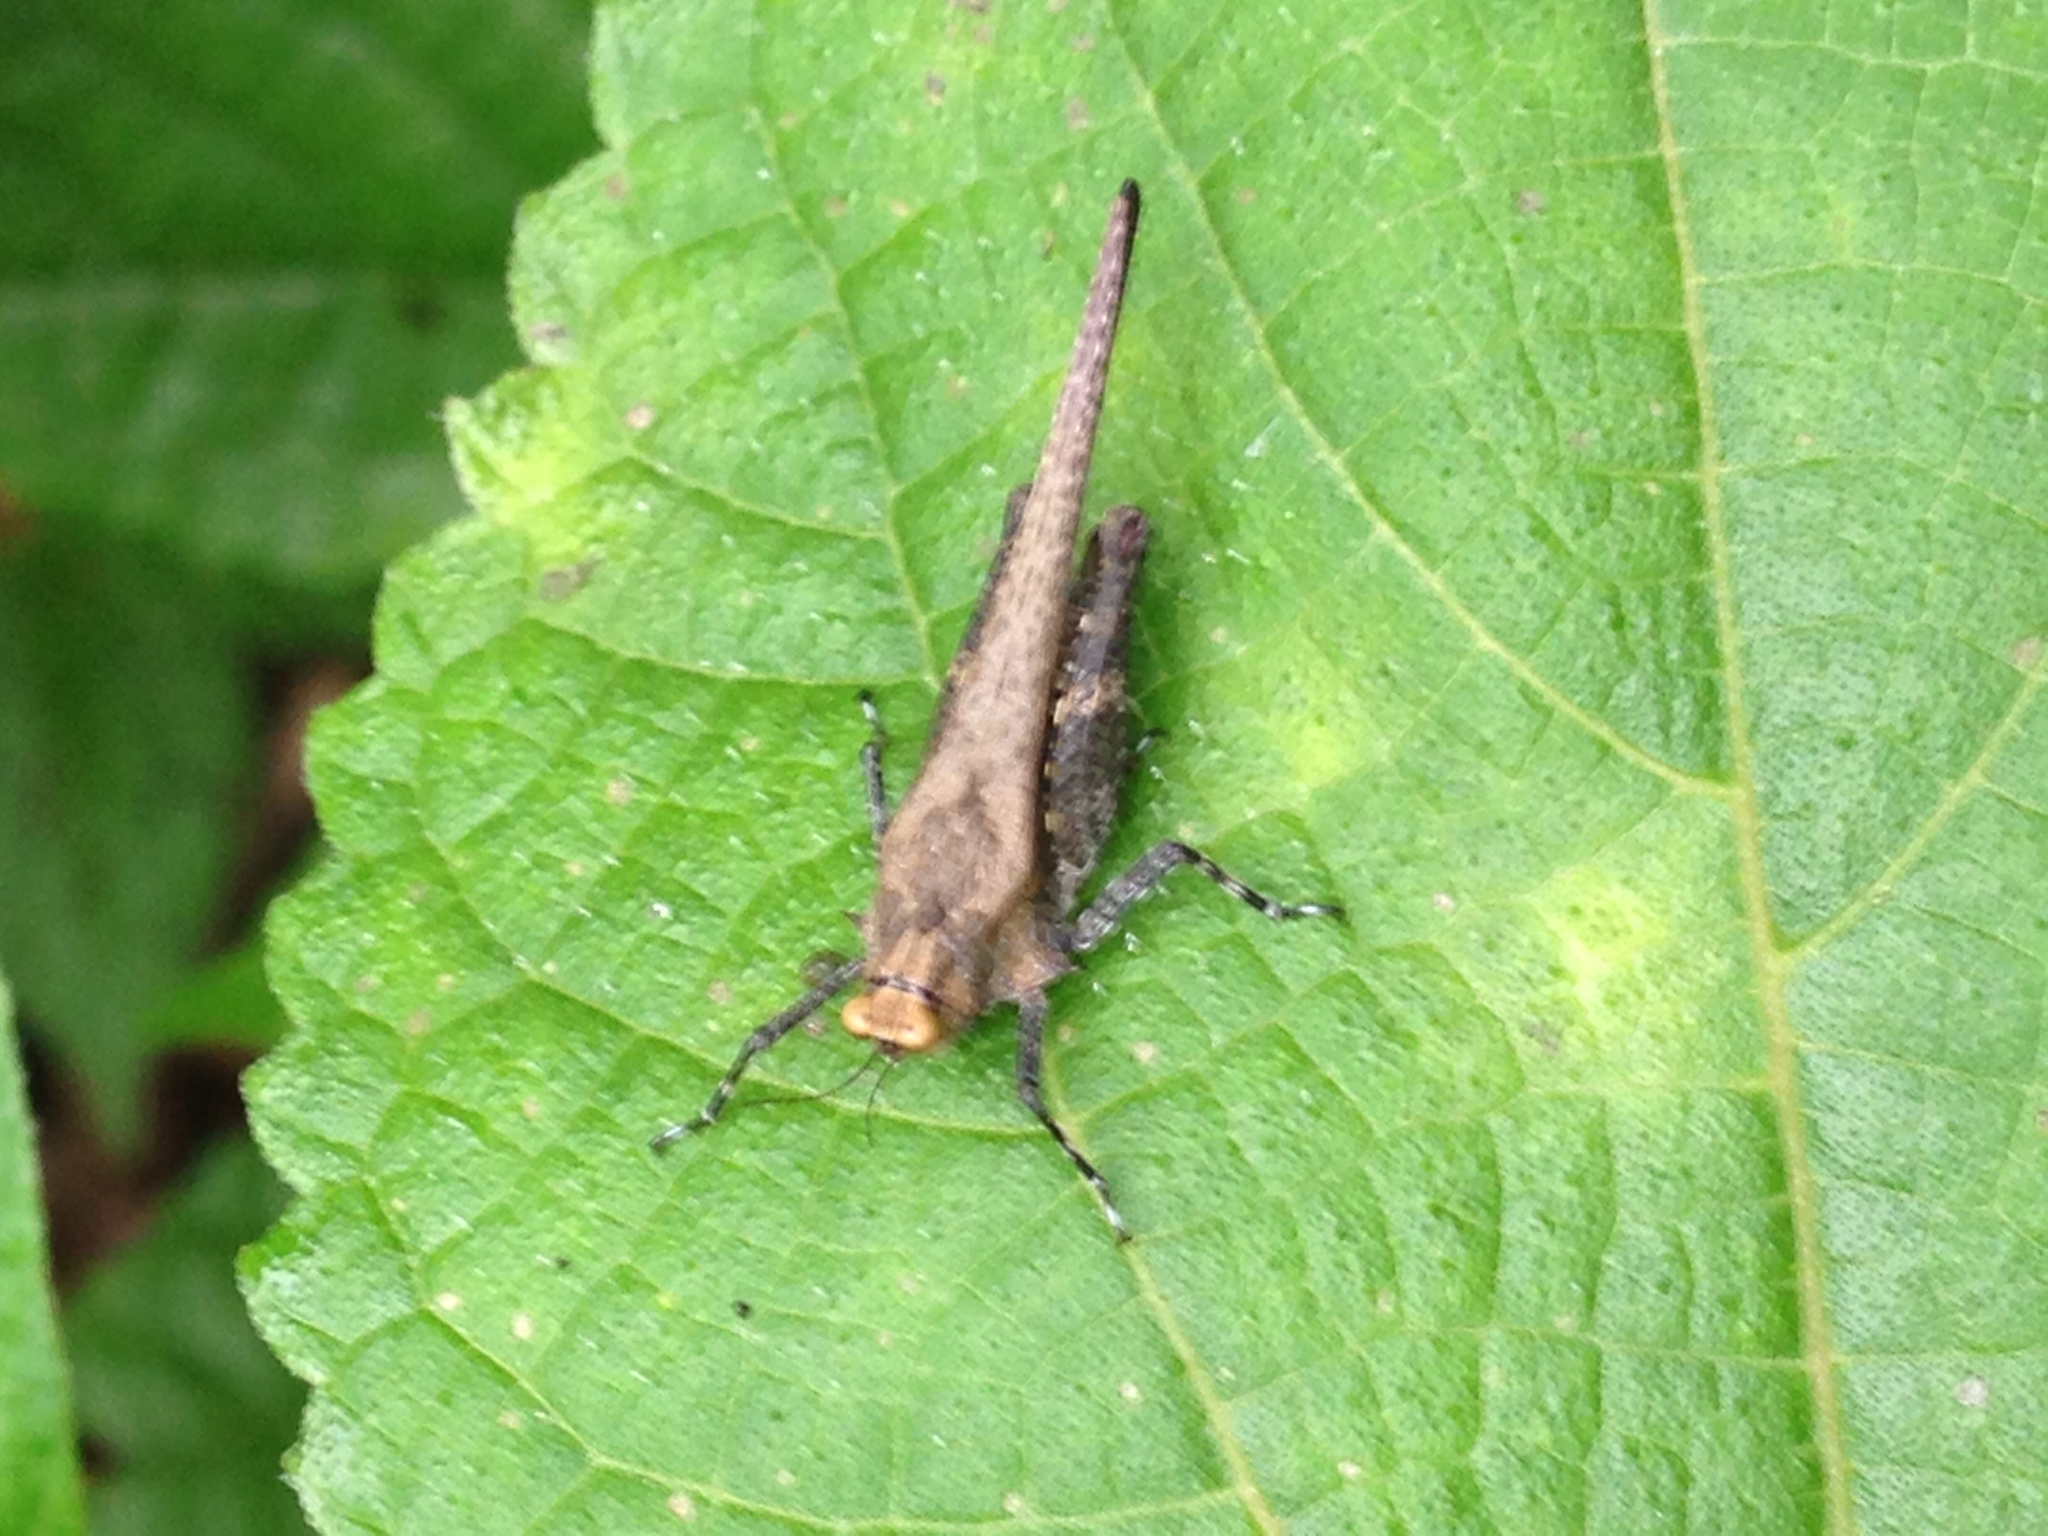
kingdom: Animalia
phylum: Arthropoda
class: Insecta
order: Orthoptera
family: Tetrigidae
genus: Criotettix
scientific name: Criotettix bispinosus
